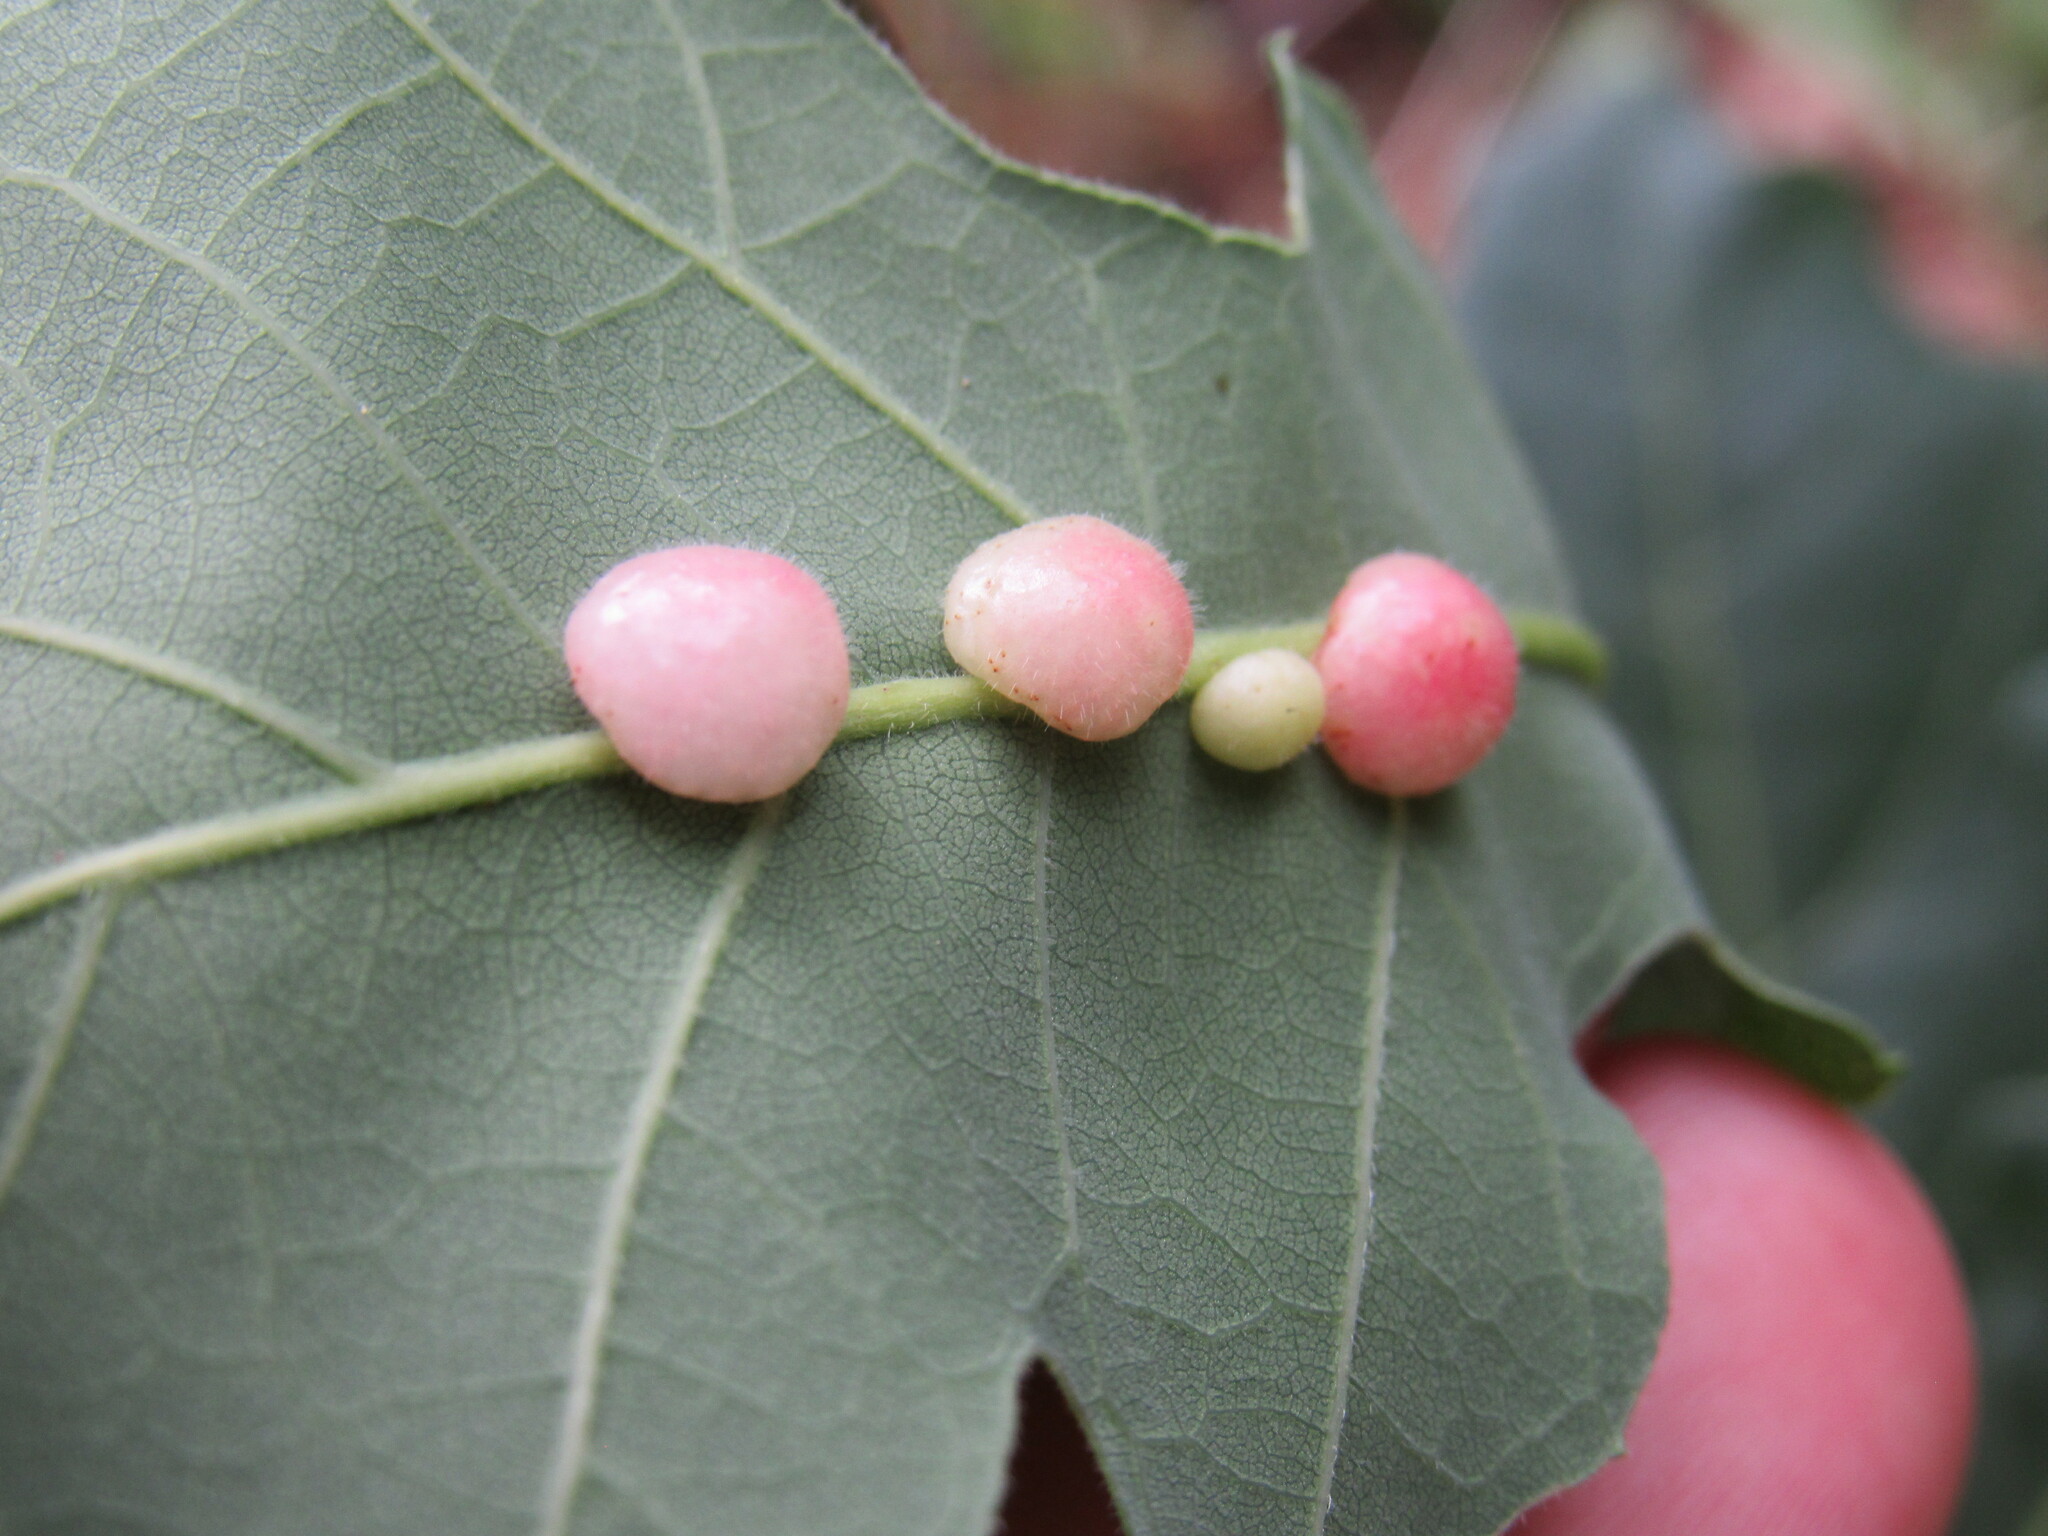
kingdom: Animalia
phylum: Arthropoda
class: Insecta
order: Hymenoptera
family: Cynipidae
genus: Trigonaspis
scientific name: Trigonaspis
